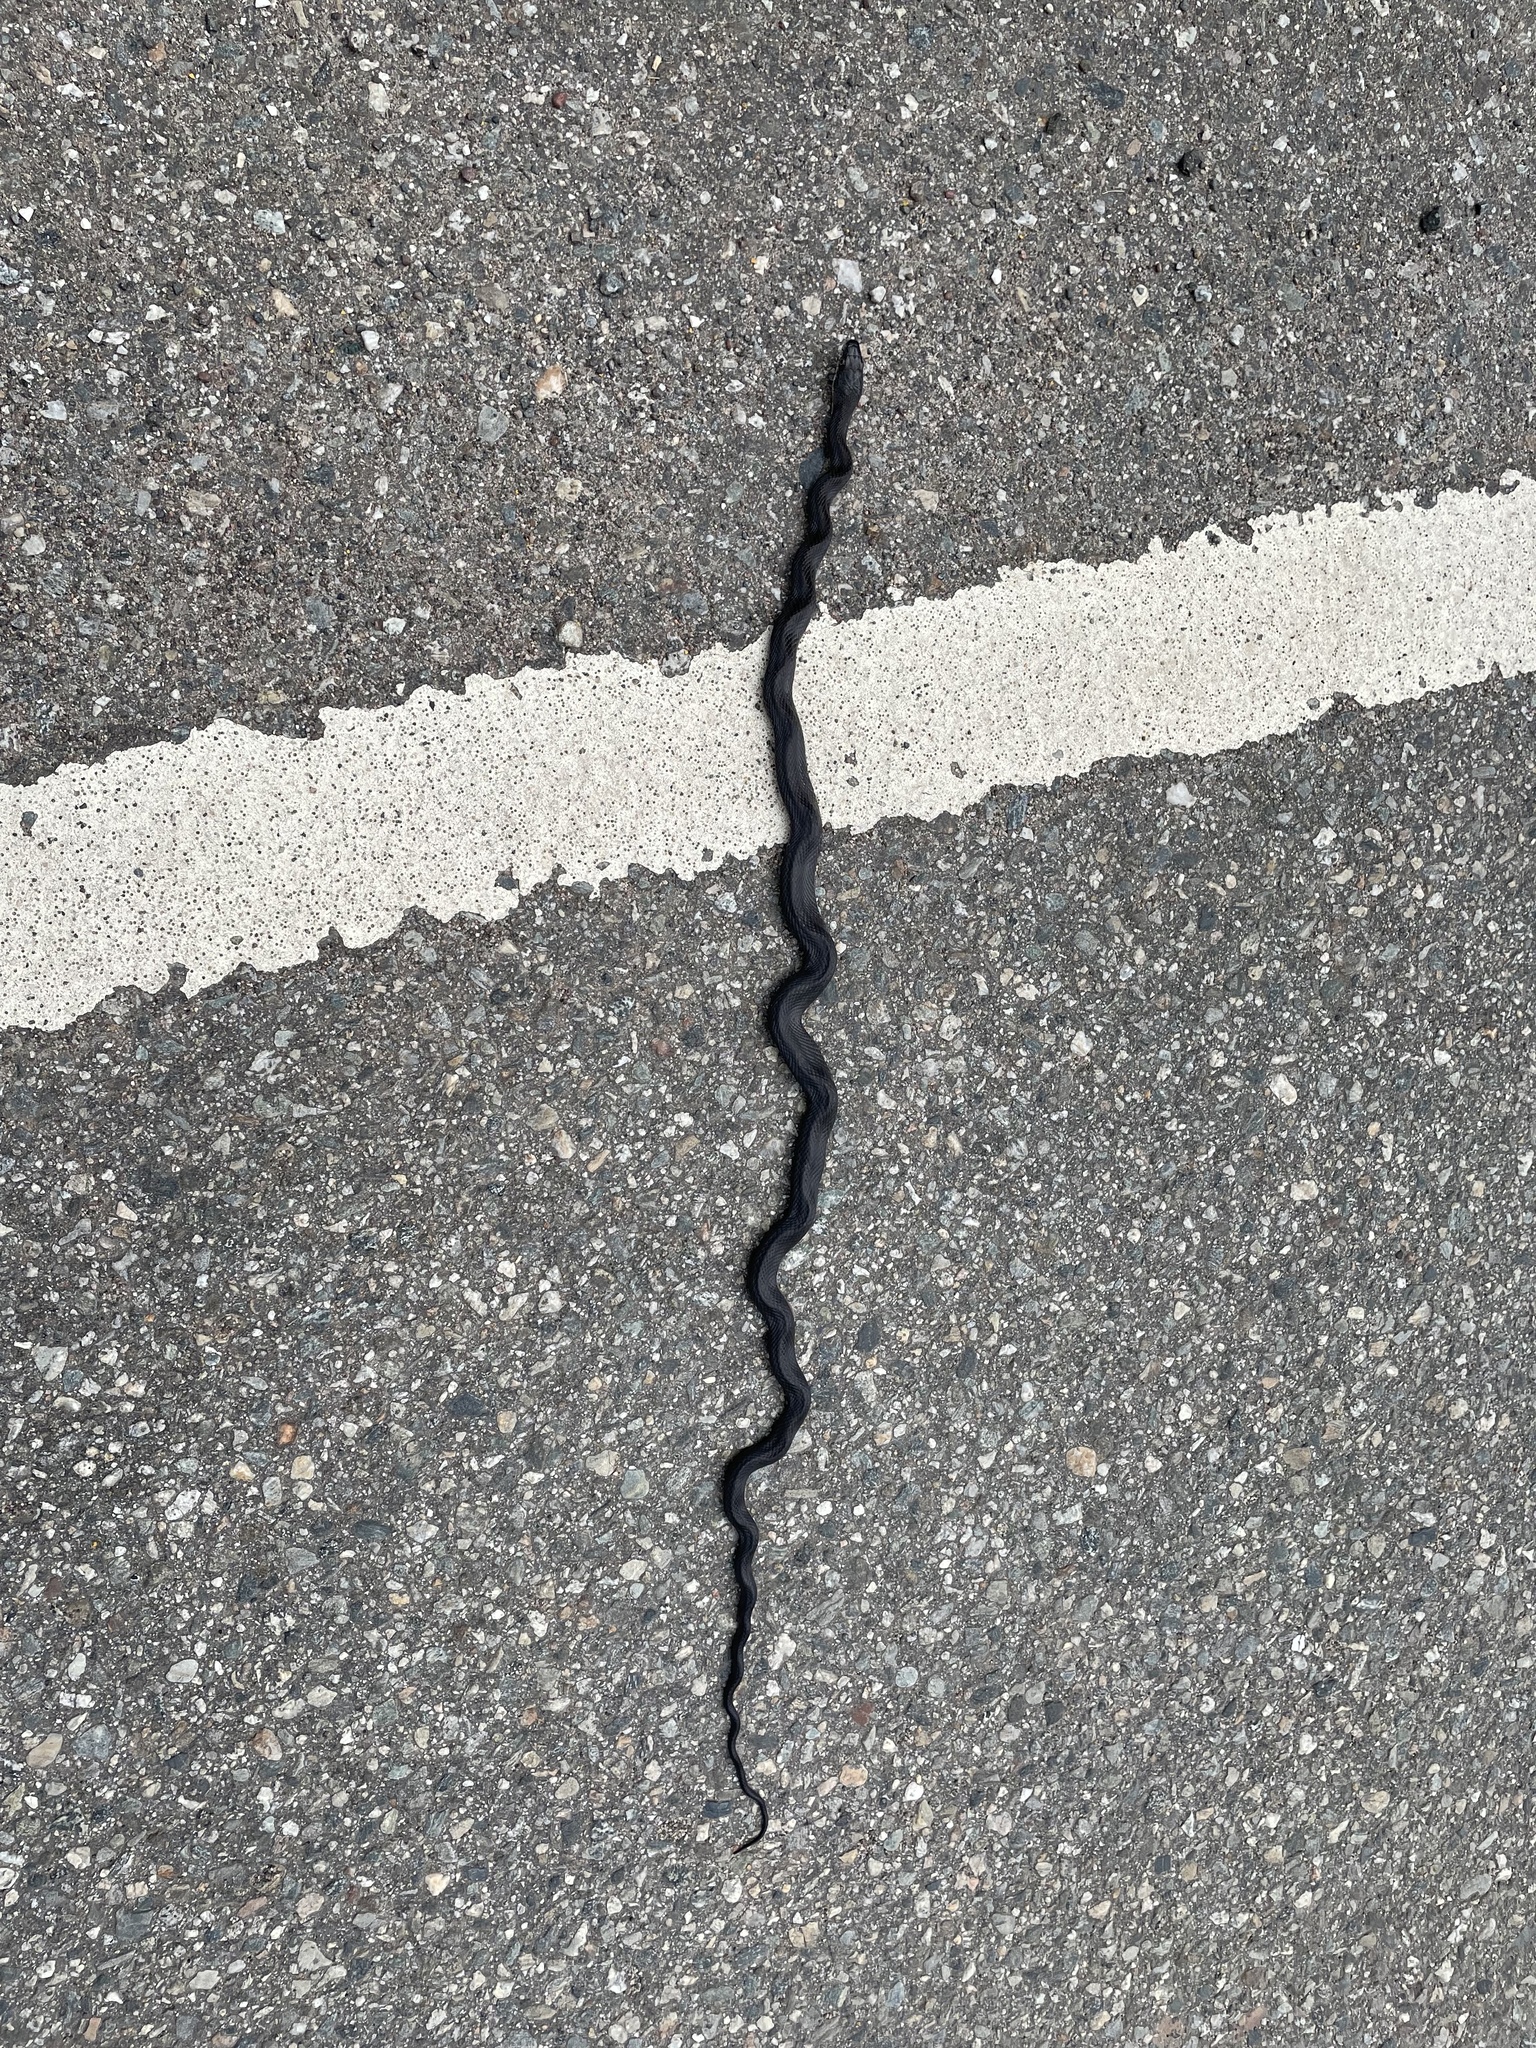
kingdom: Animalia
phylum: Chordata
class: Squamata
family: Colubridae
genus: Pantherophis
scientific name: Pantherophis alleghaniensis
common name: Eastern rat snake
